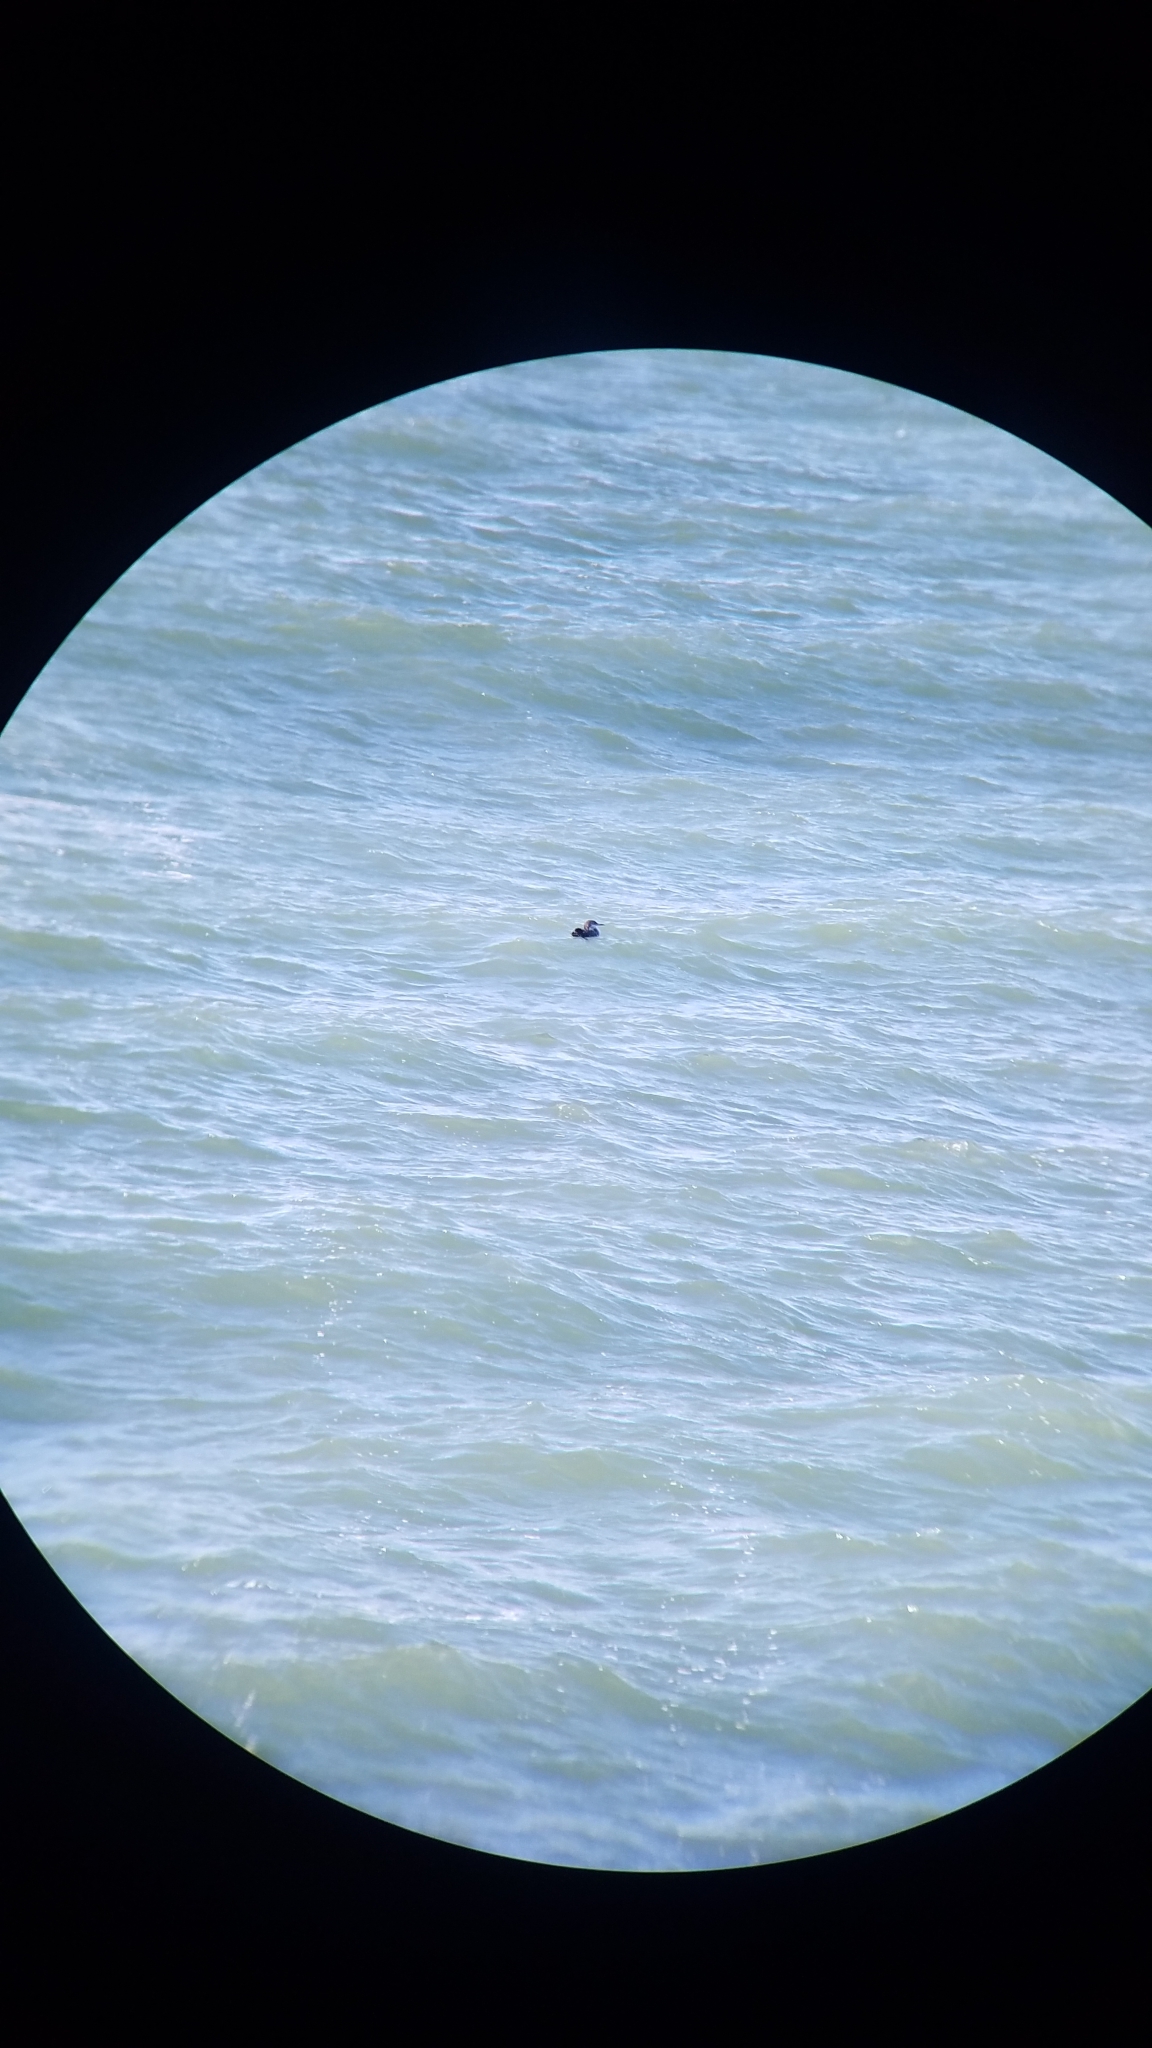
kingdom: Animalia
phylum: Chordata
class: Aves
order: Gaviiformes
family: Gaviidae
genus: Gavia
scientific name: Gavia immer
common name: Common loon
